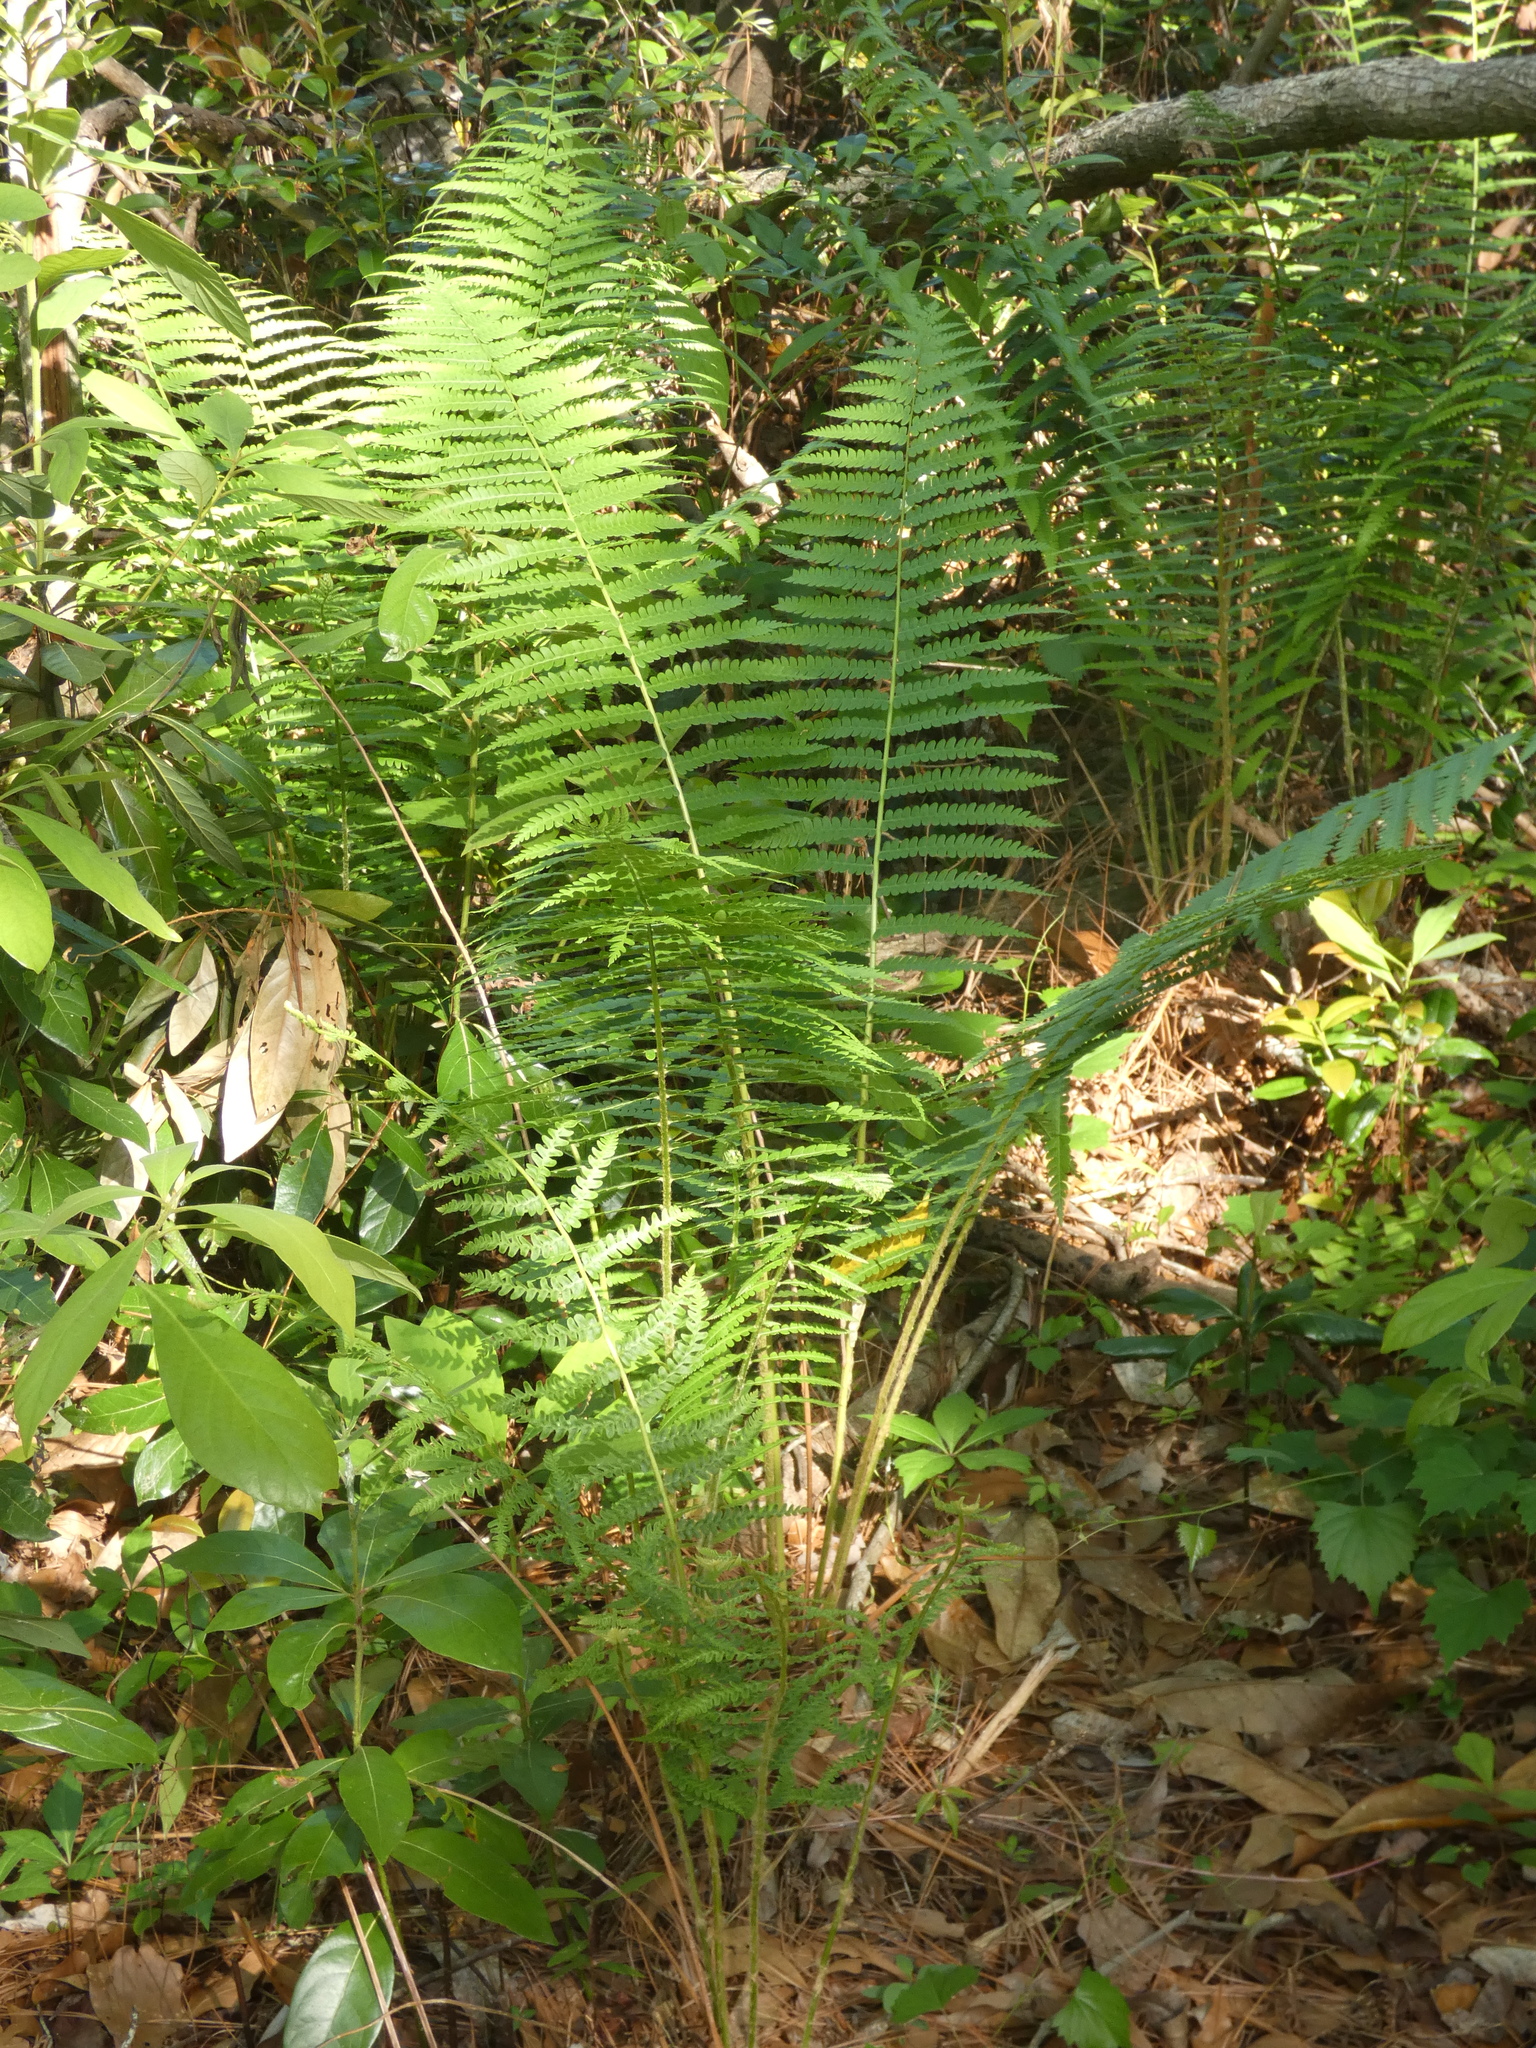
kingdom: Plantae
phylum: Tracheophyta
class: Polypodiopsida
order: Osmundales
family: Osmundaceae
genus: Osmundastrum
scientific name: Osmundastrum cinnamomeum
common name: Cinnamon fern
